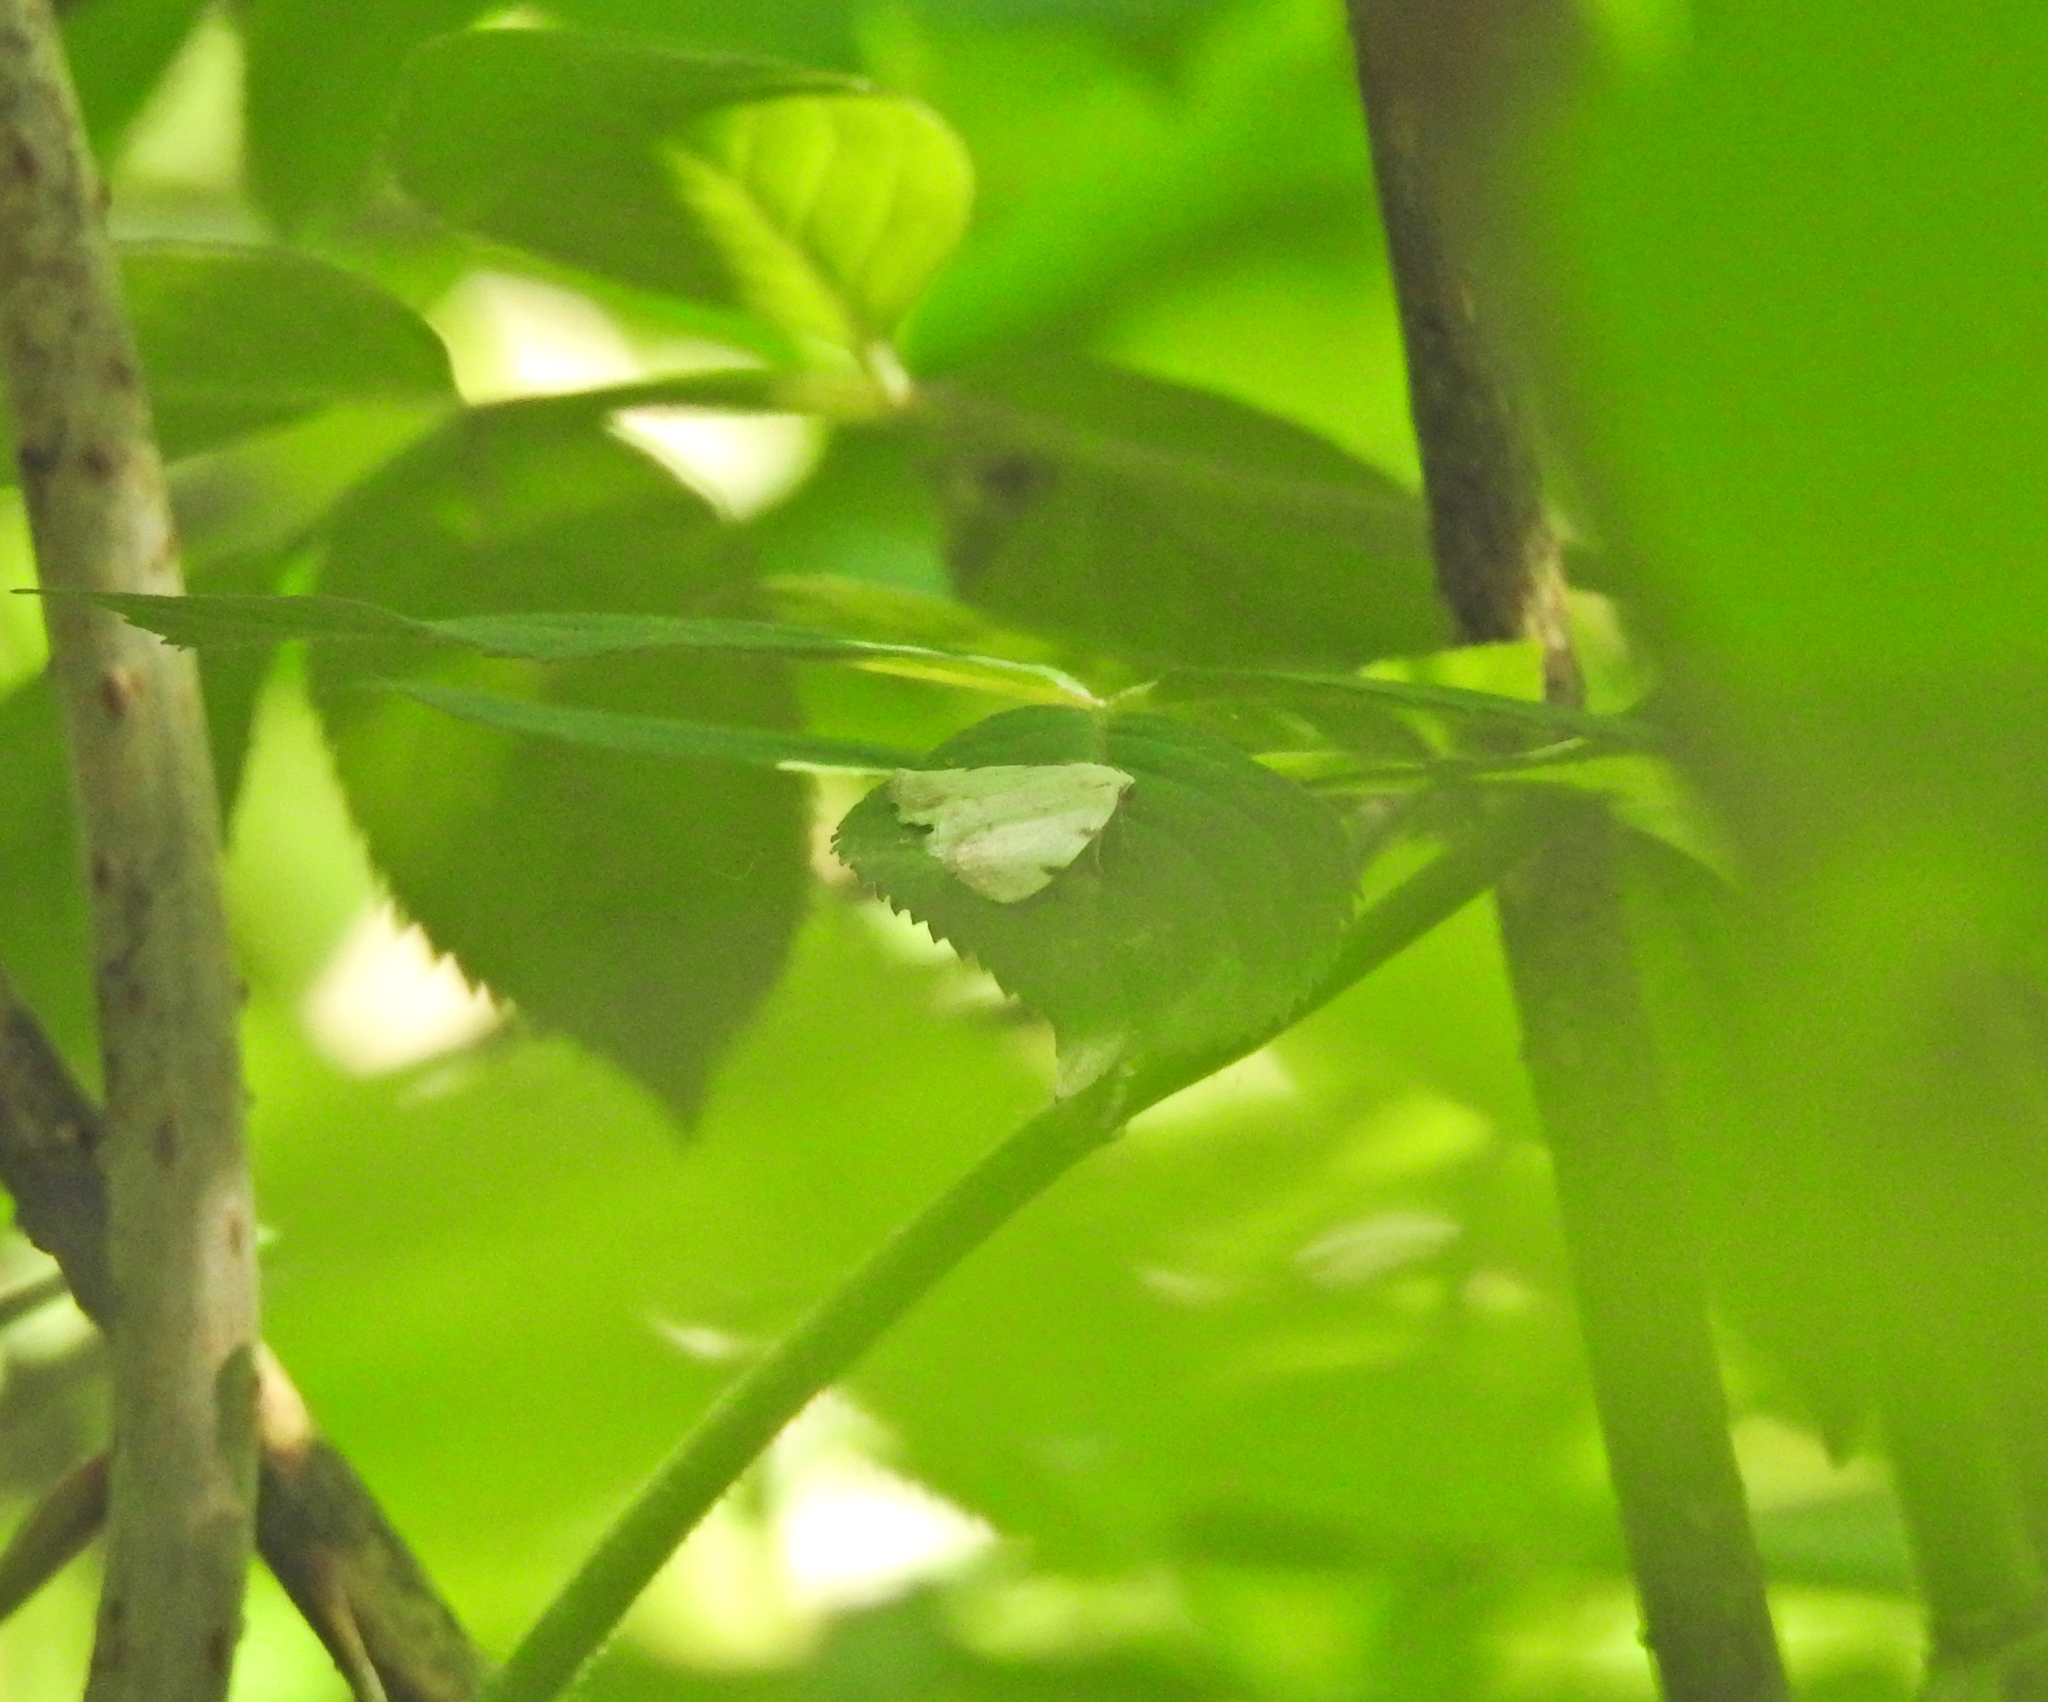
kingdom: Animalia
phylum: Arthropoda
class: Insecta
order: Lepidoptera
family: Geometridae
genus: Lomographa
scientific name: Lomographa bimaculata
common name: White-pinion spotted
